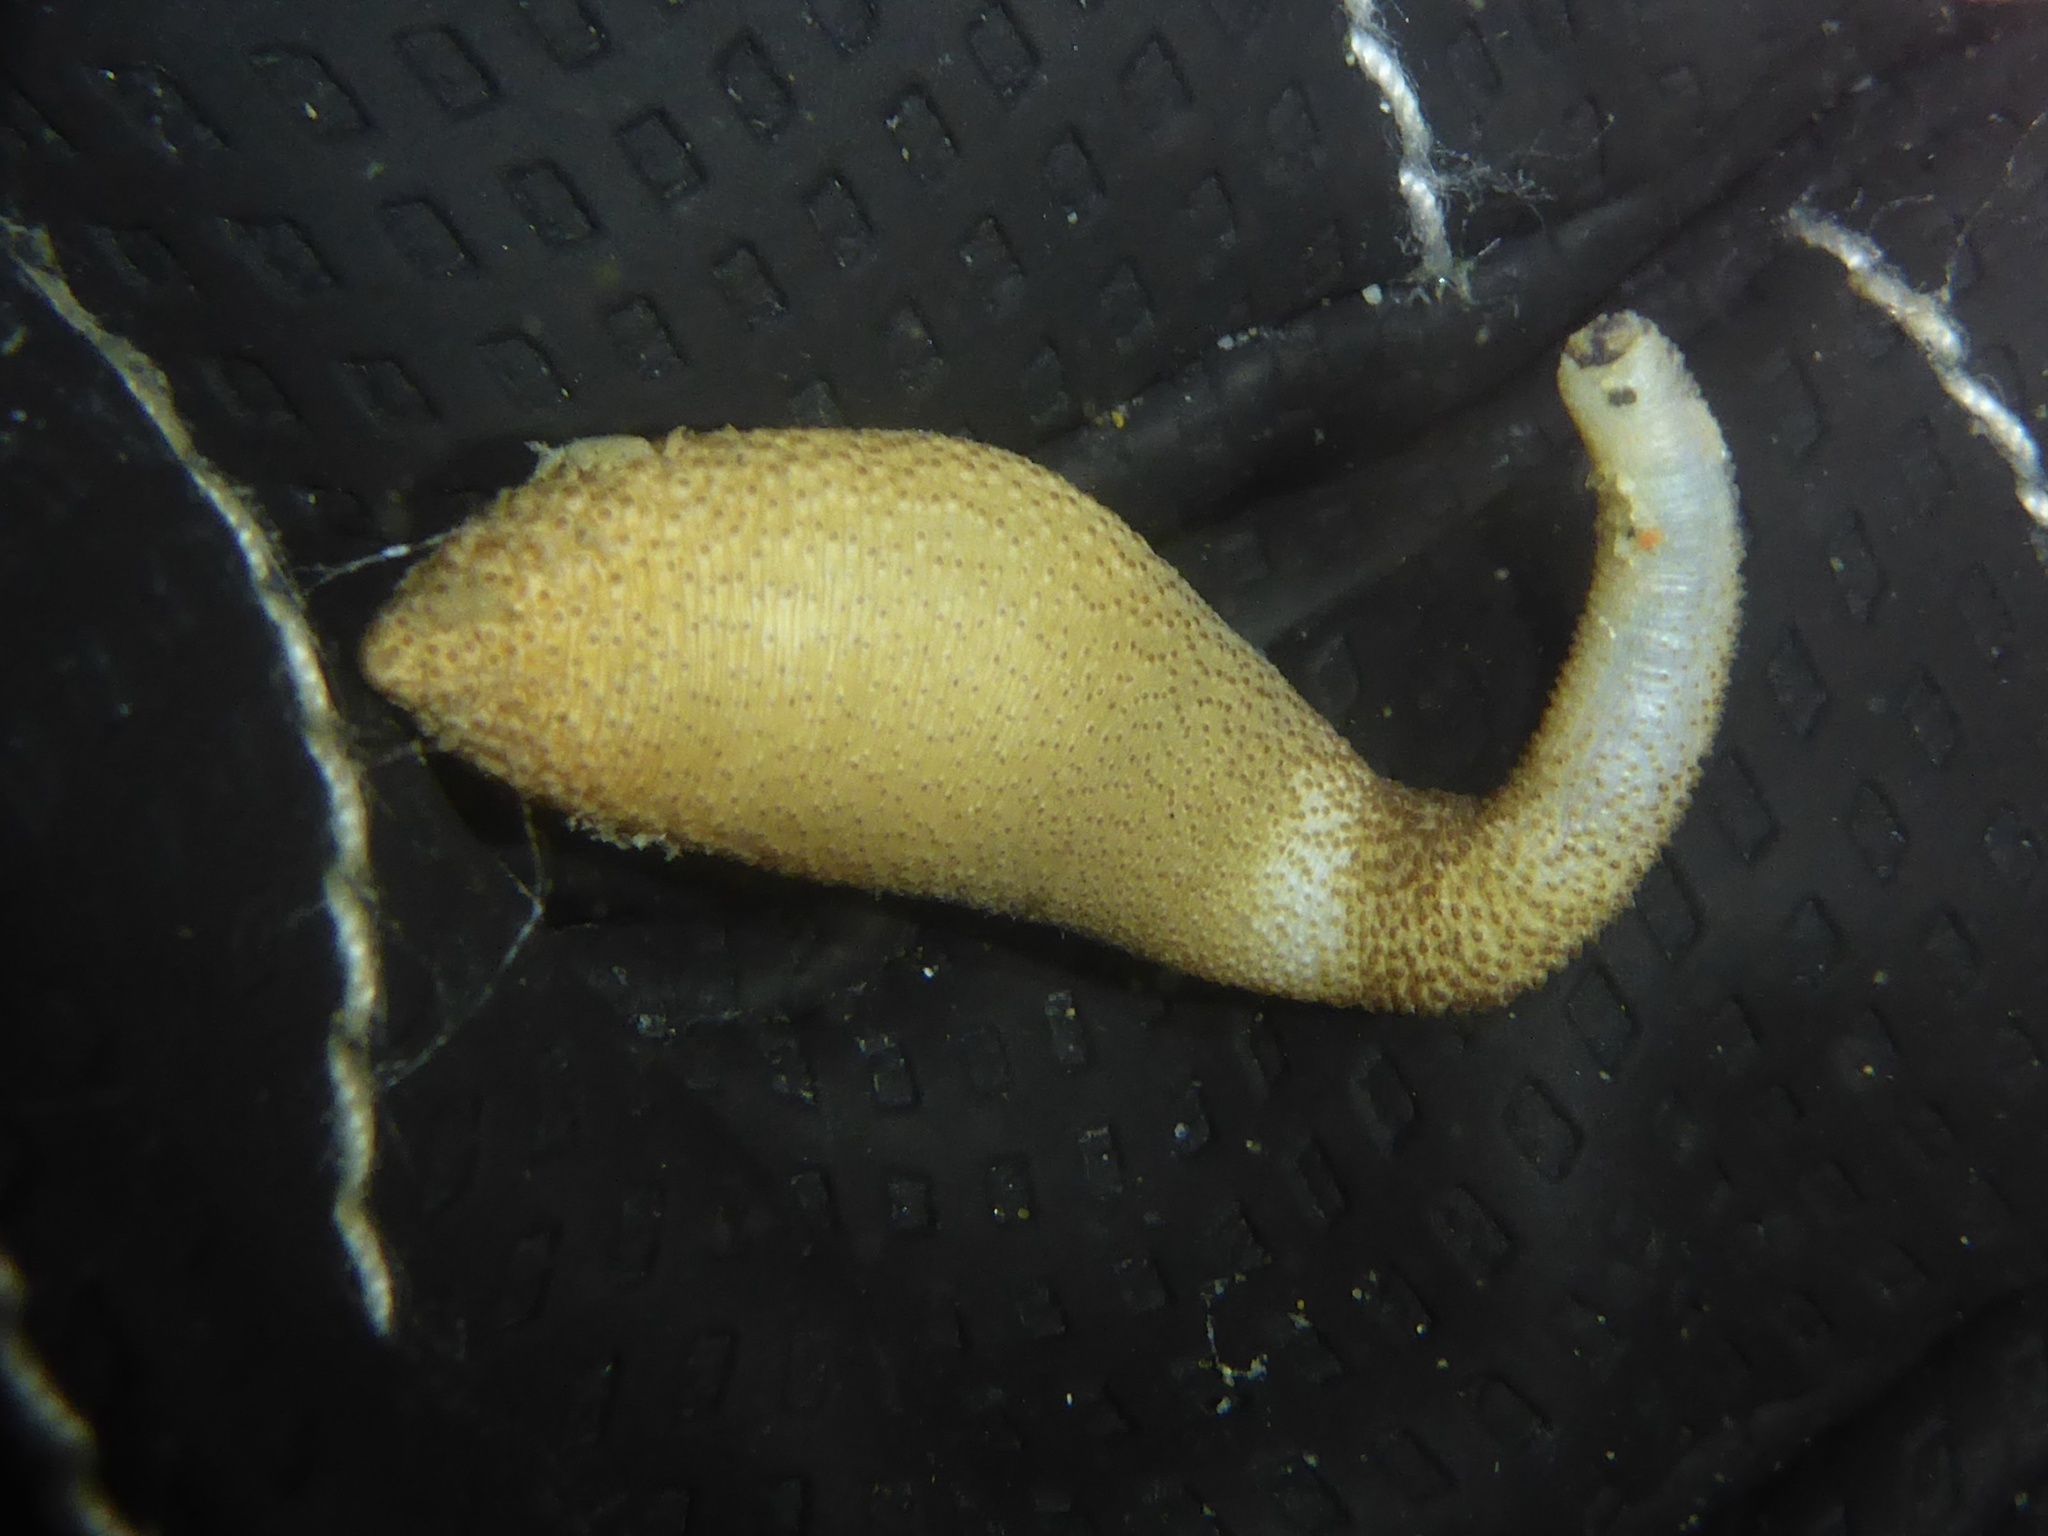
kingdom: Animalia
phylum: Sipuncula
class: Phascolosomatidea
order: Phascolosomatiformes
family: Phascolosomatidae
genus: Phascolosoma
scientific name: Phascolosoma agassizii
